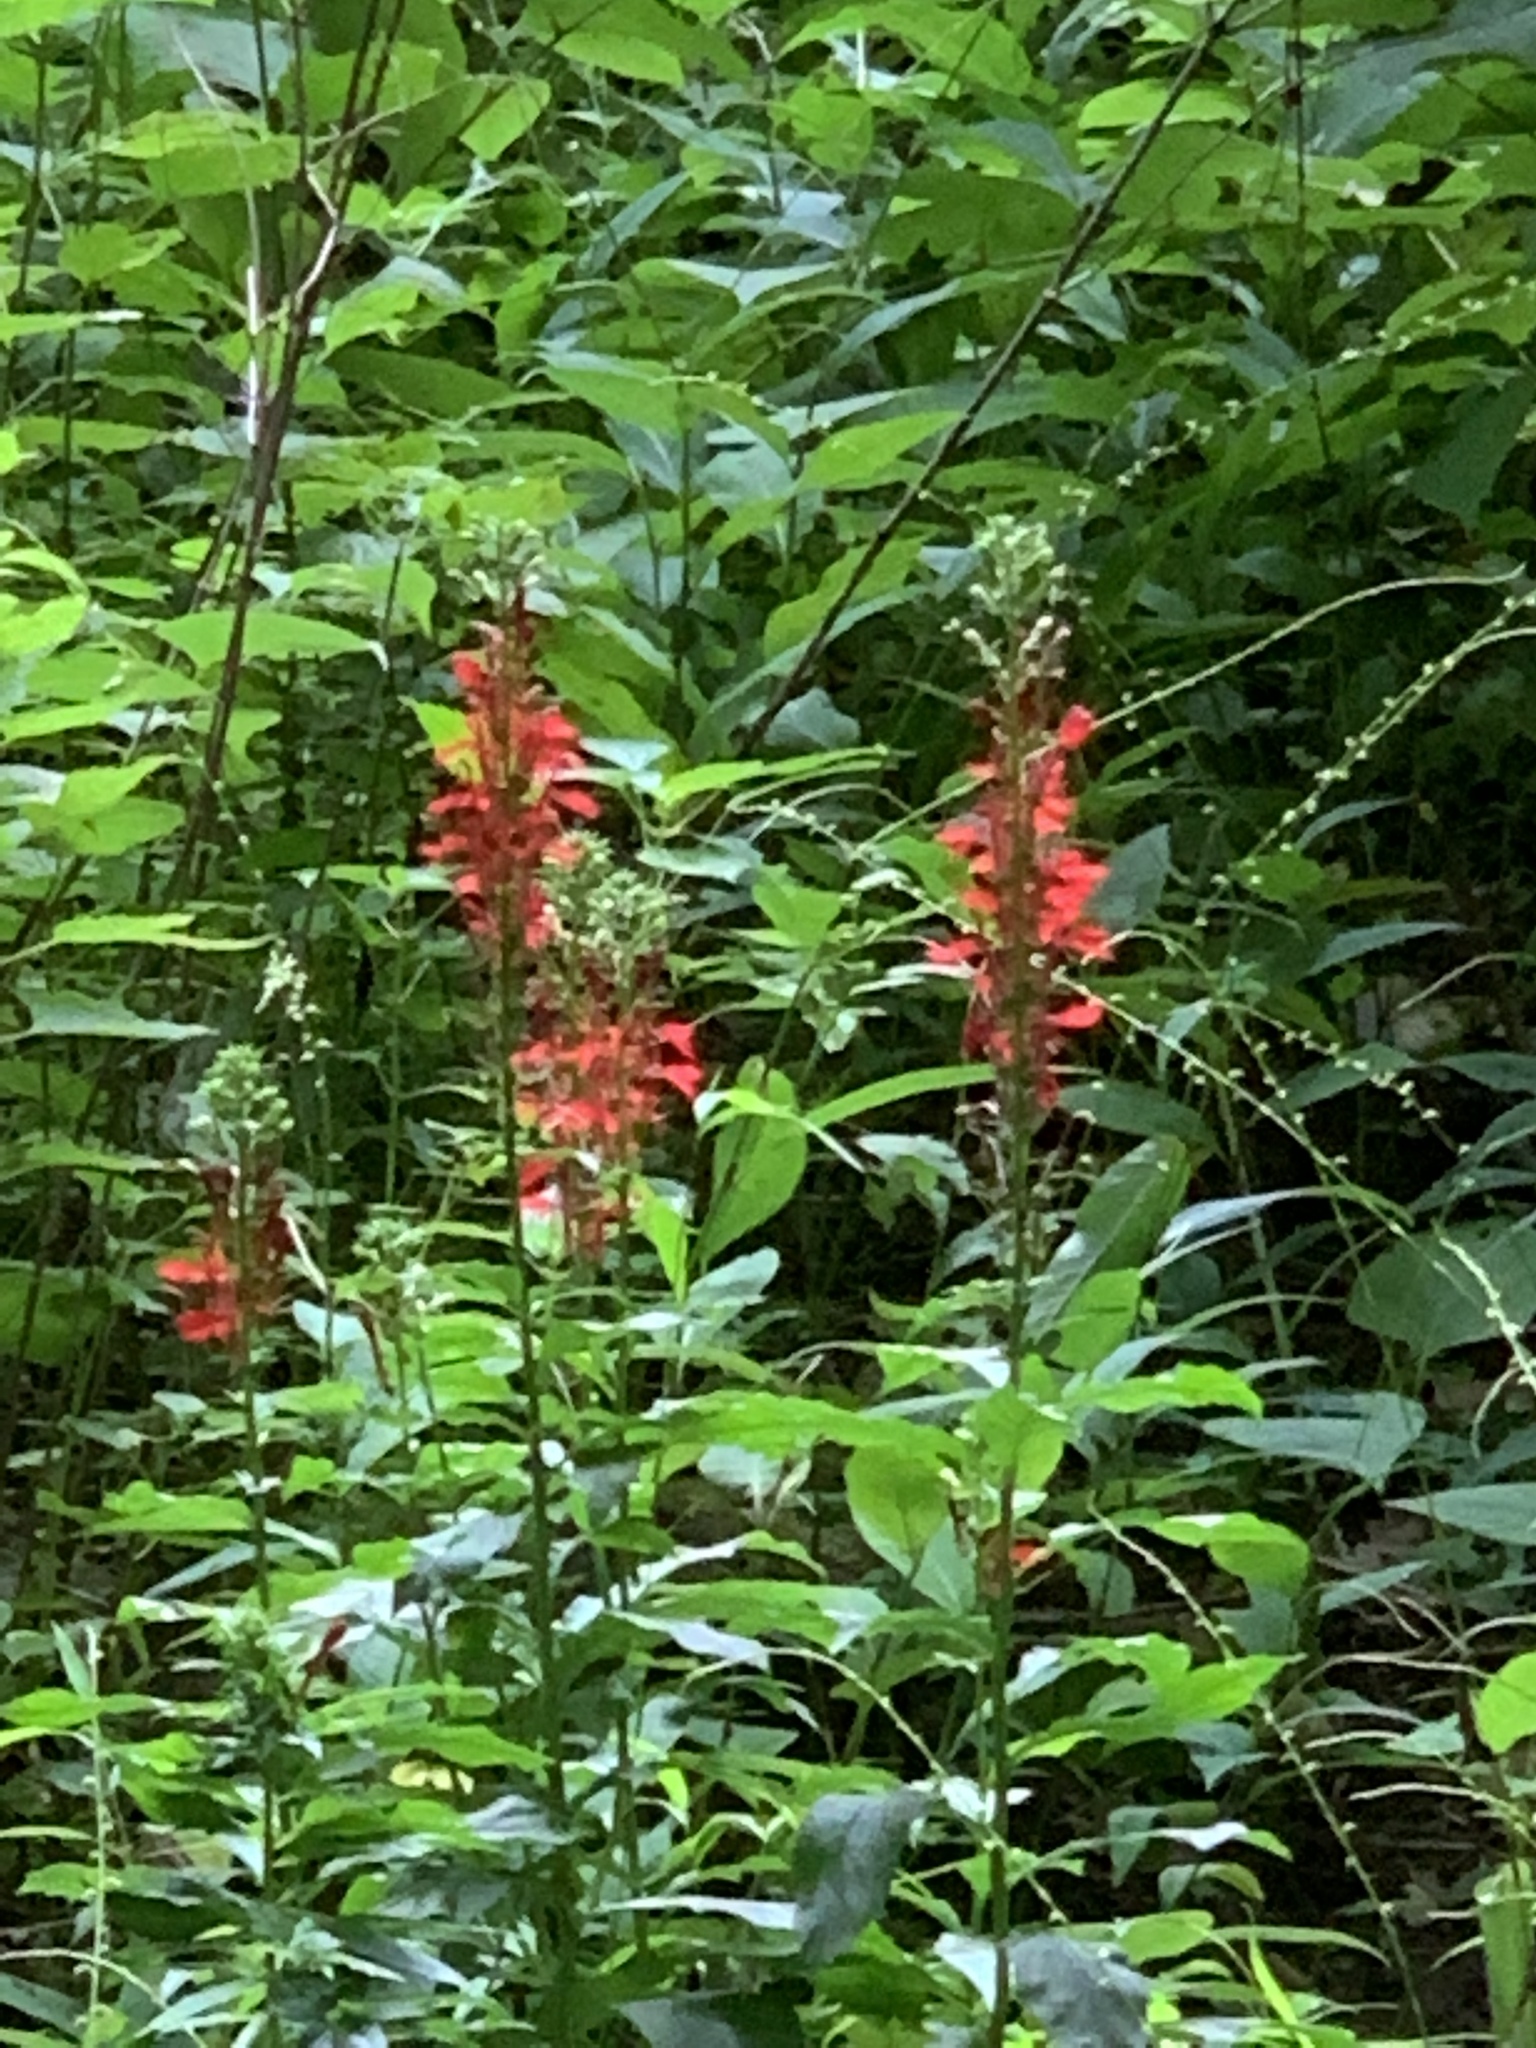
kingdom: Plantae
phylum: Tracheophyta
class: Magnoliopsida
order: Asterales
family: Campanulaceae
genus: Lobelia
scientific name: Lobelia cardinalis
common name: Cardinal flower
